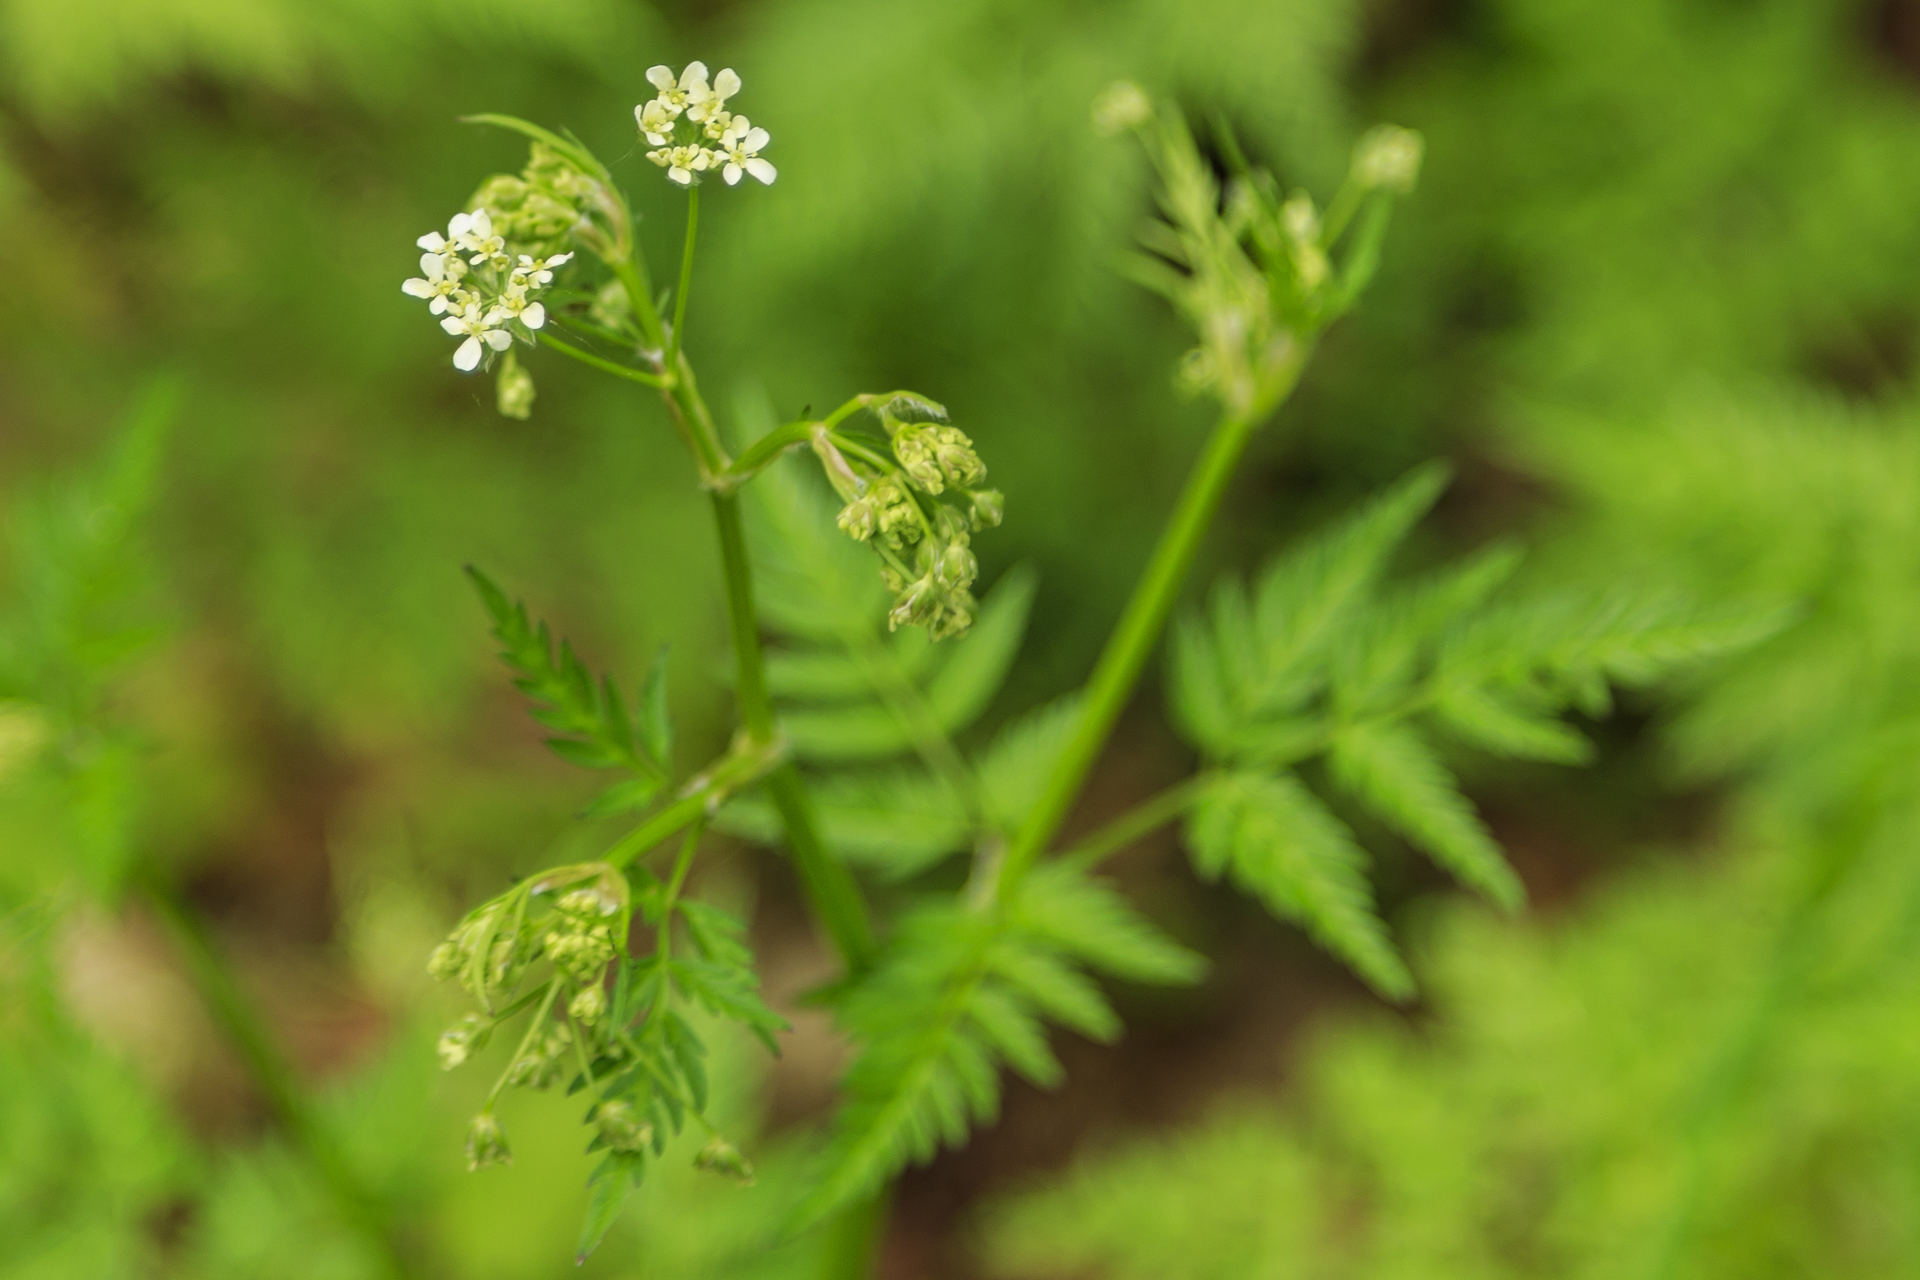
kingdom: Plantae
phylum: Tracheophyta
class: Magnoliopsida
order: Apiales
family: Apiaceae
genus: Anthriscus
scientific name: Anthriscus sylvestris
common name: Cow parsley
